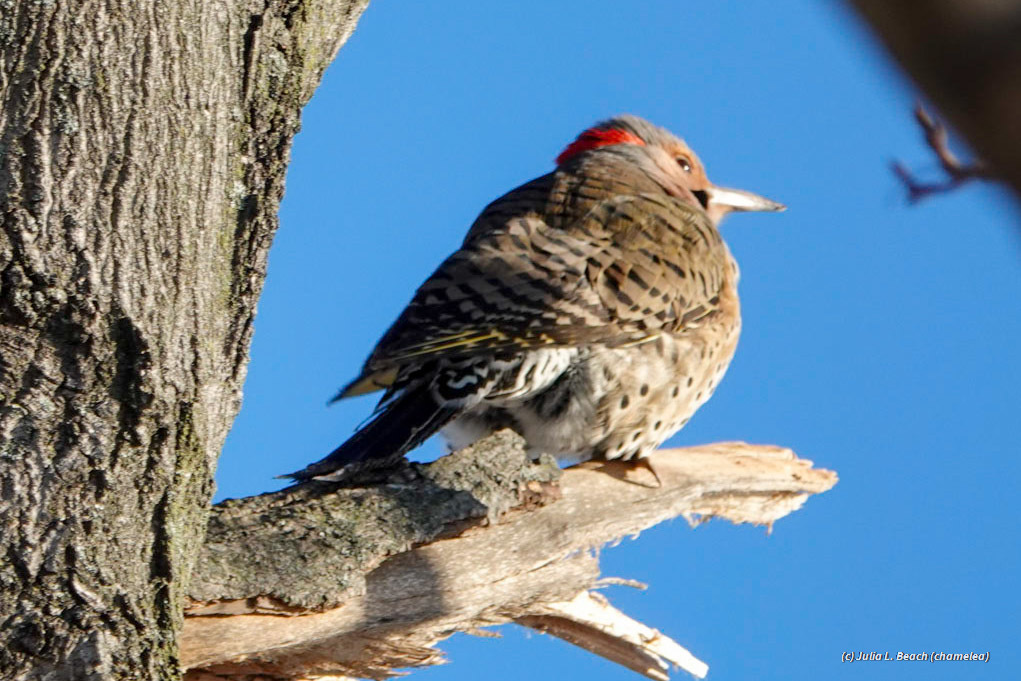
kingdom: Animalia
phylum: Chordata
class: Aves
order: Piciformes
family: Picidae
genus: Colaptes
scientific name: Colaptes auratus
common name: Northern flicker
